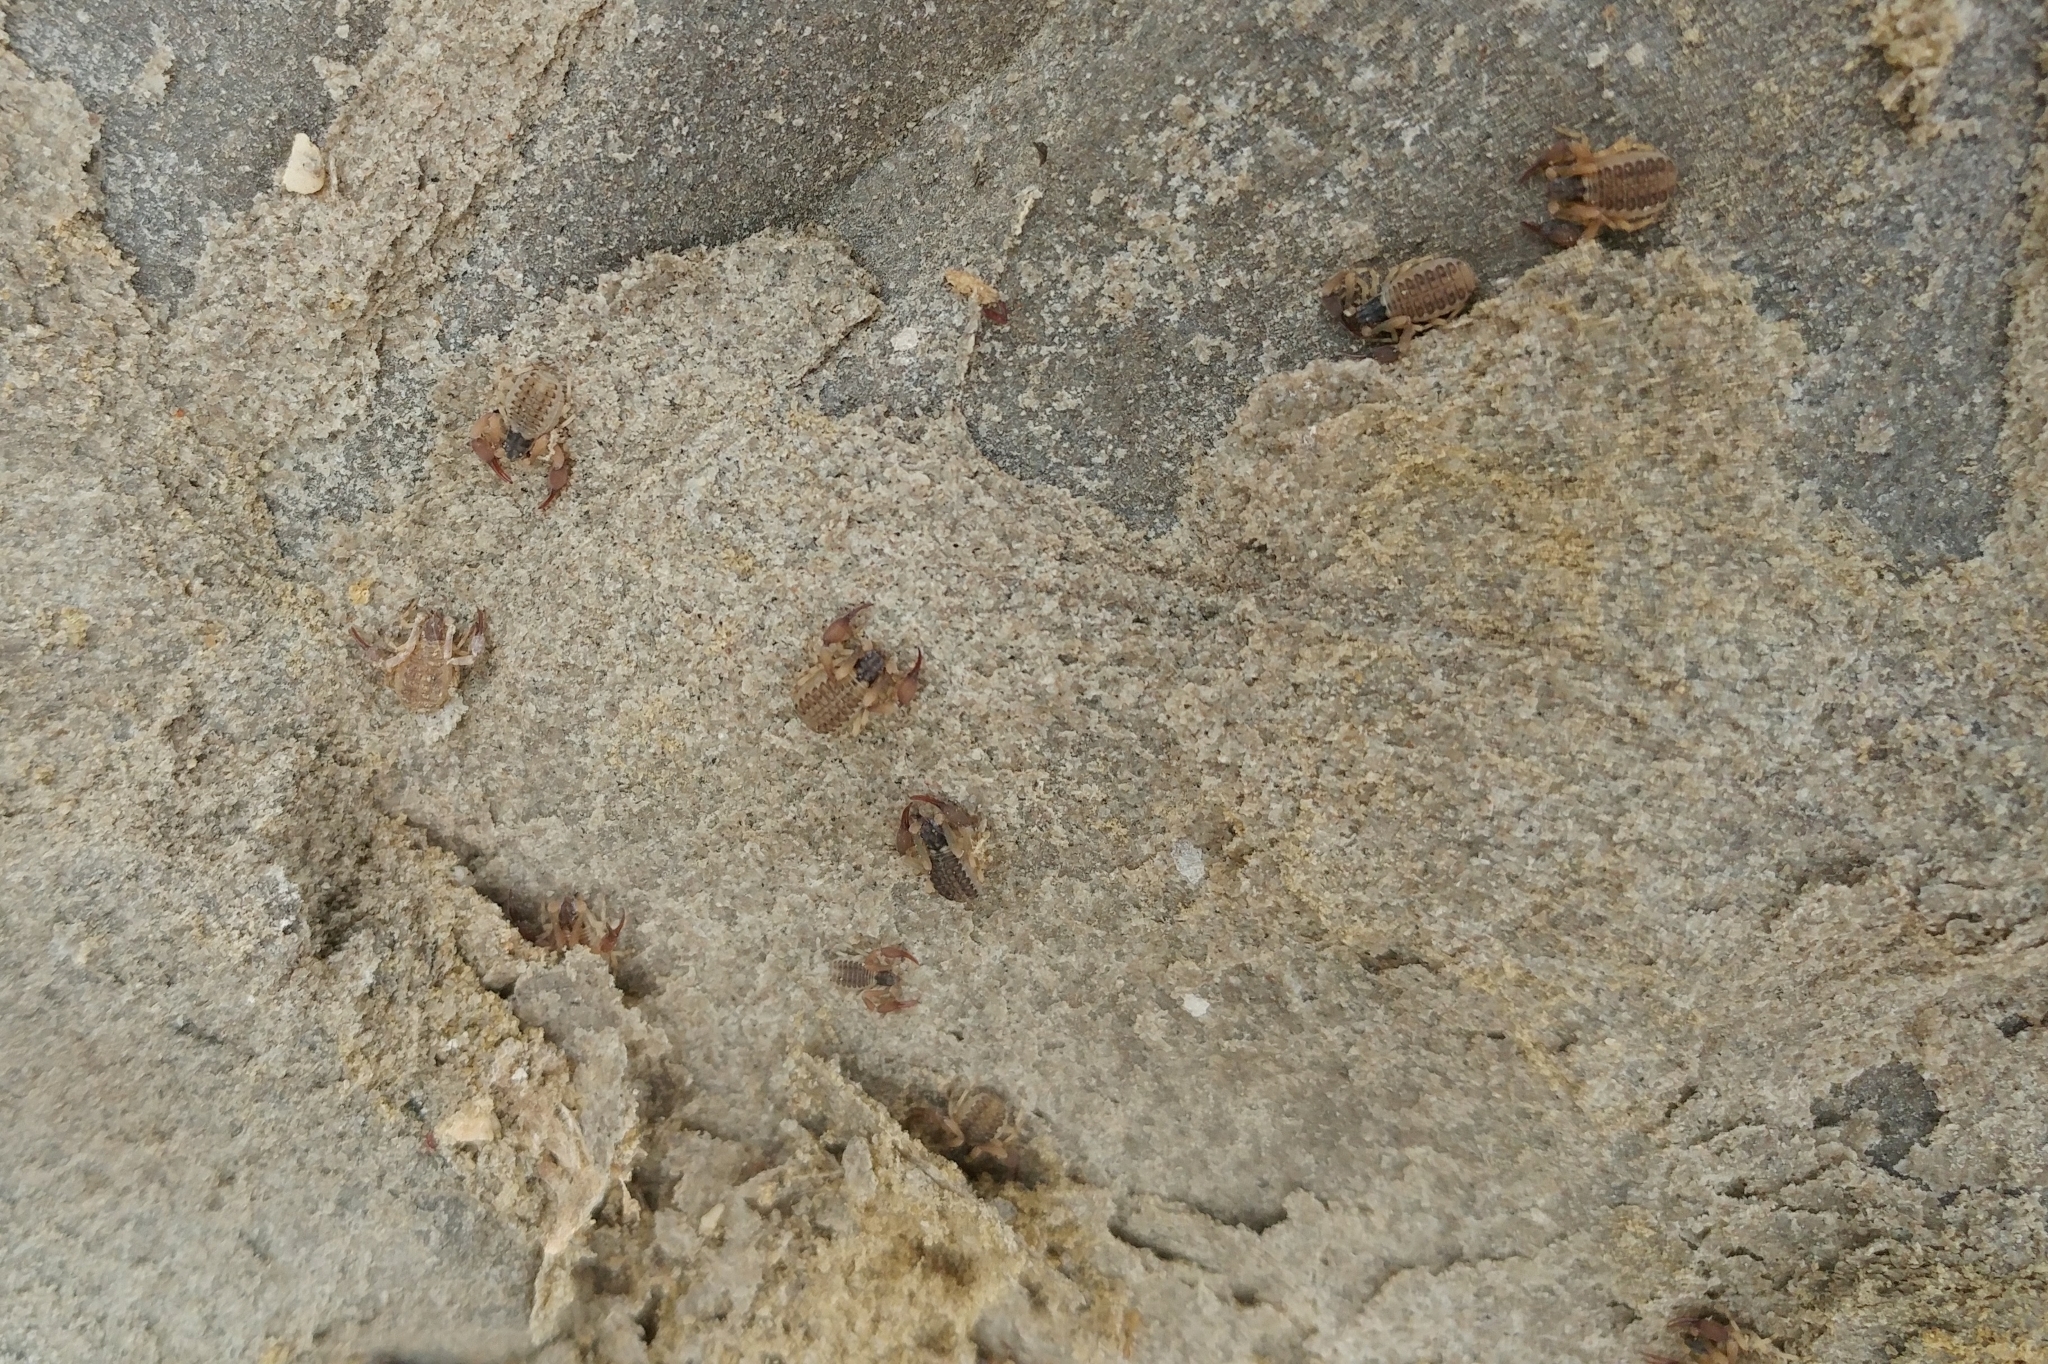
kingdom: Animalia
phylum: Arthropoda
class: Arachnida
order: Pseudoscorpiones
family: Garypidae
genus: Anchigarypus
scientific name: Anchigarypus californicus
